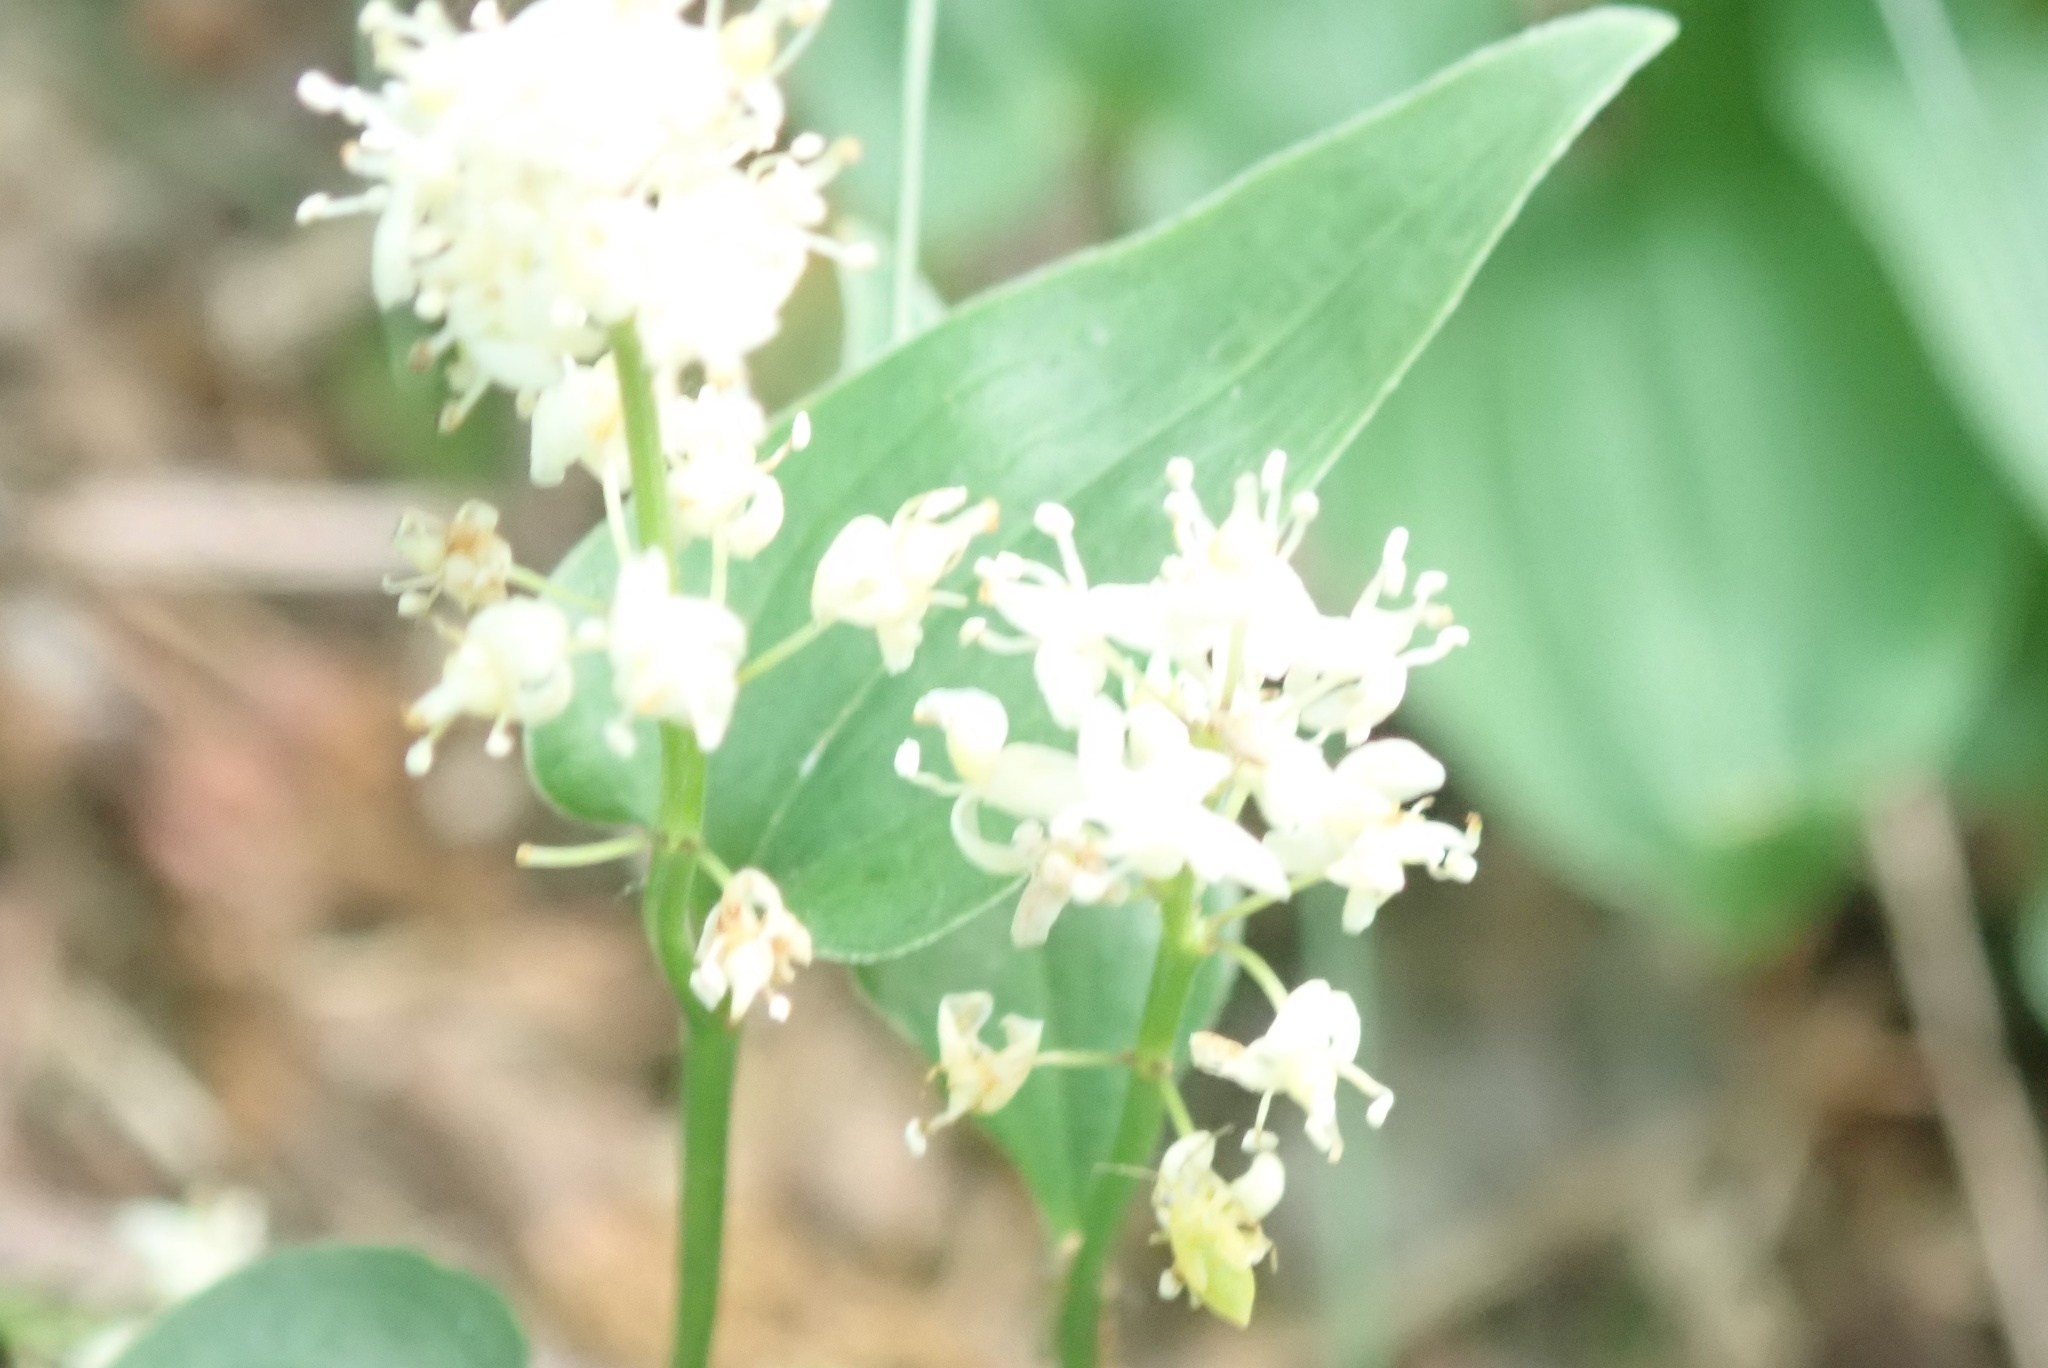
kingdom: Plantae
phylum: Tracheophyta
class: Liliopsida
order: Asparagales
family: Asparagaceae
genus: Maianthemum
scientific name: Maianthemum bifolium
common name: May lily
